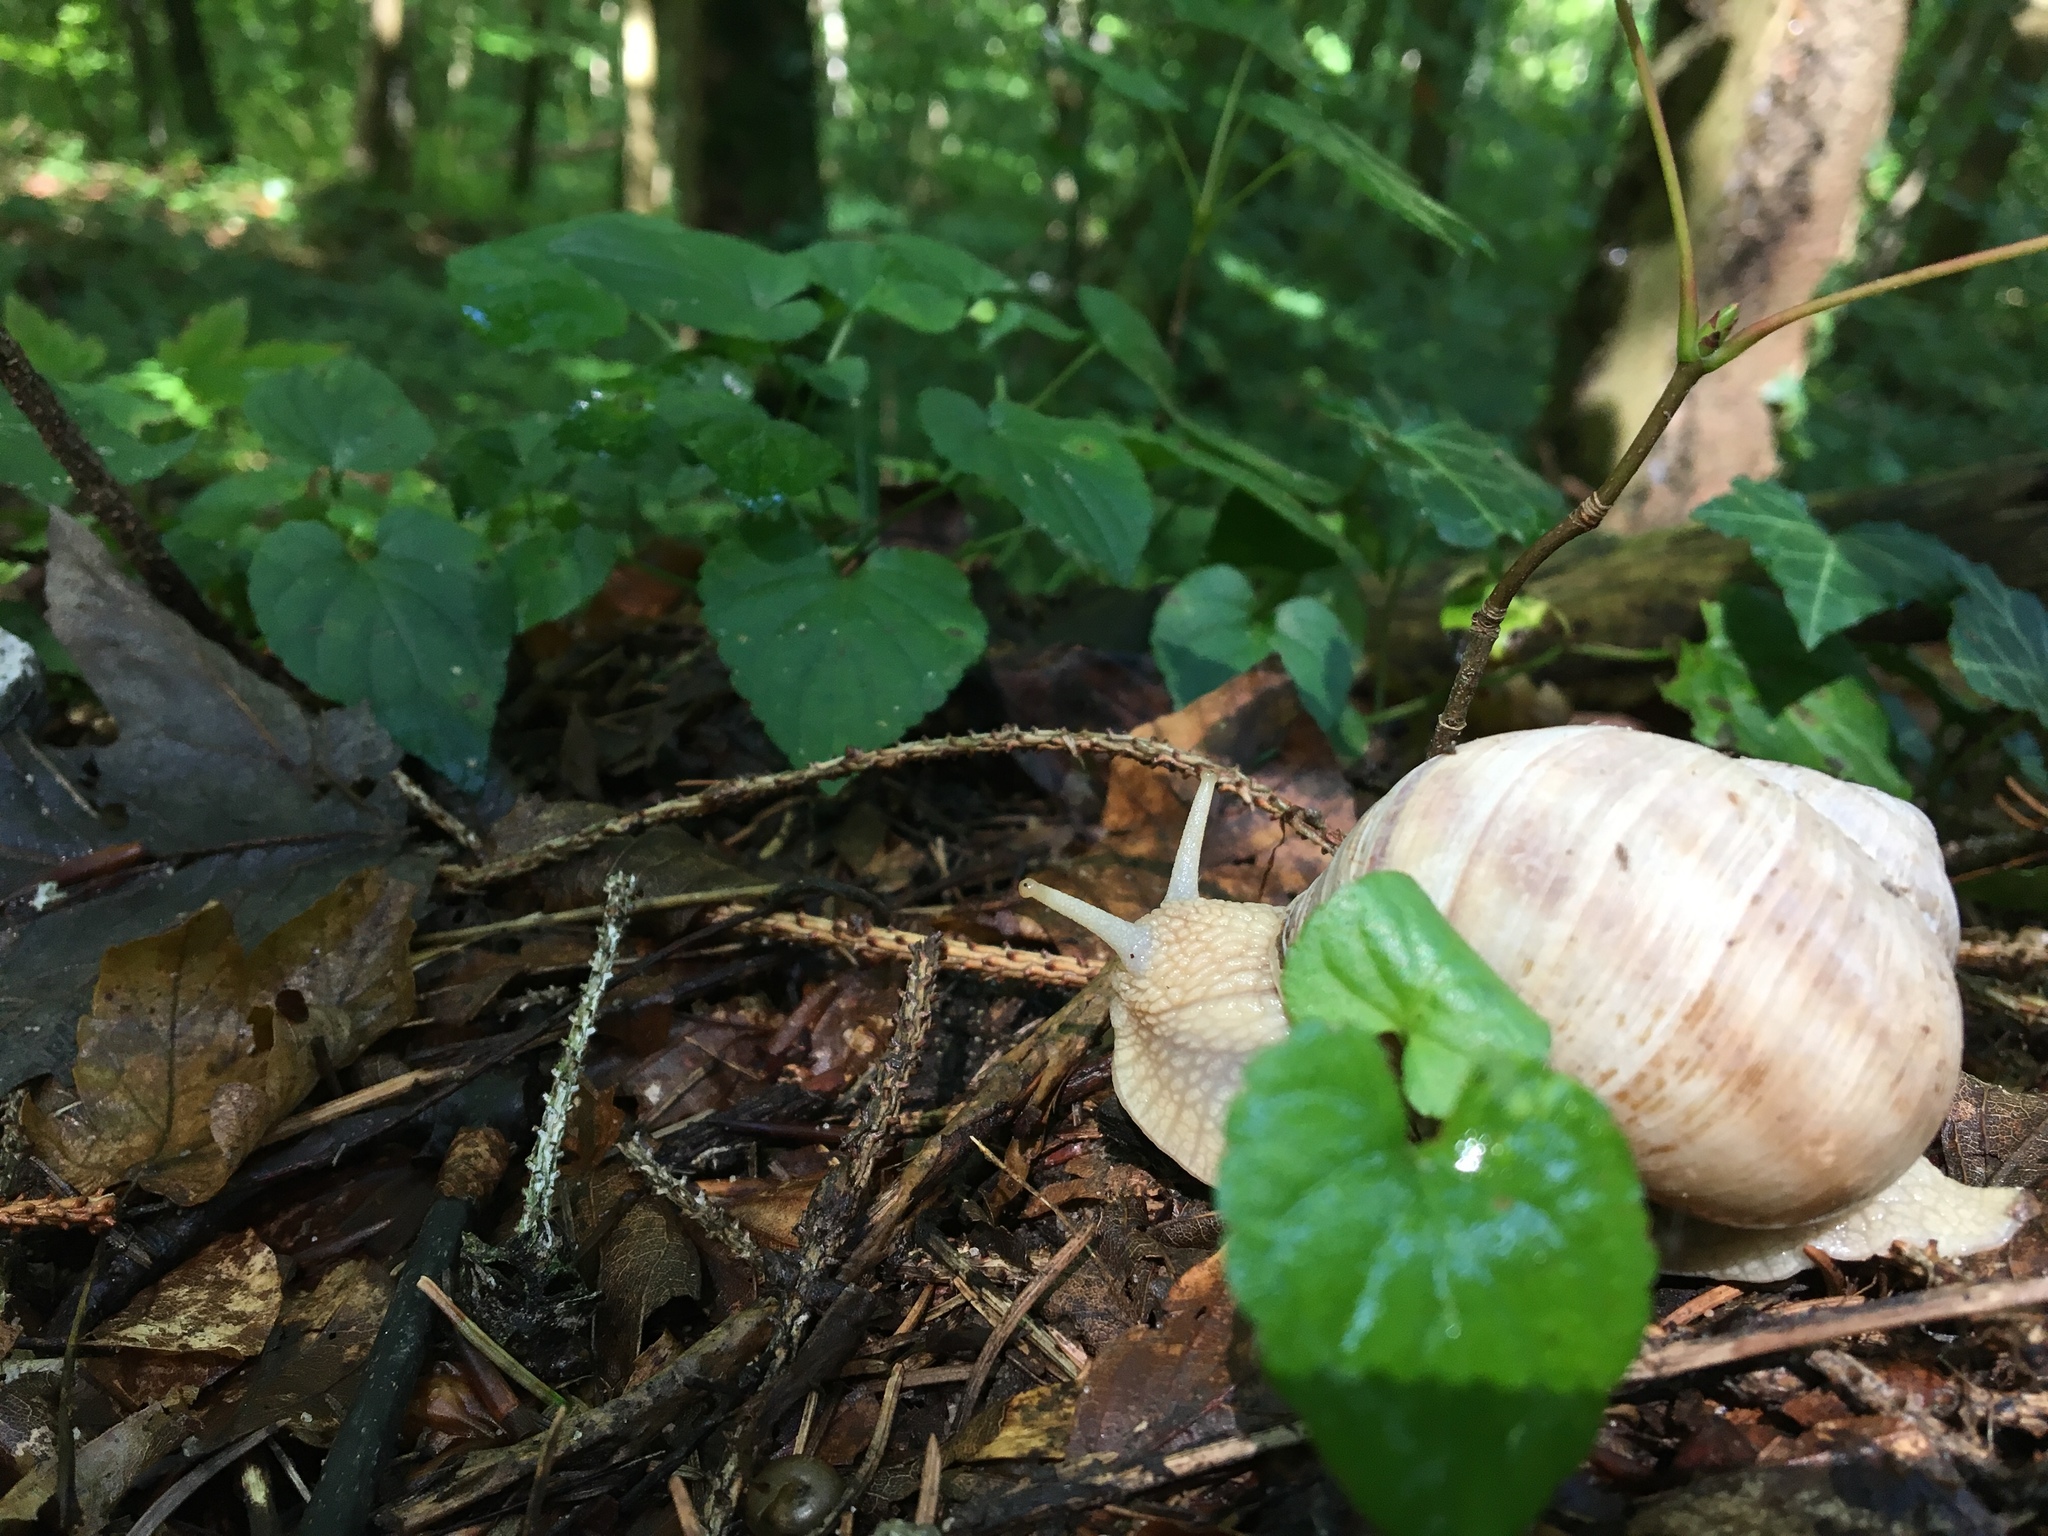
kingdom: Animalia
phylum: Mollusca
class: Gastropoda
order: Stylommatophora
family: Helicidae
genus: Helix
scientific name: Helix pomatia
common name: Roman snail
